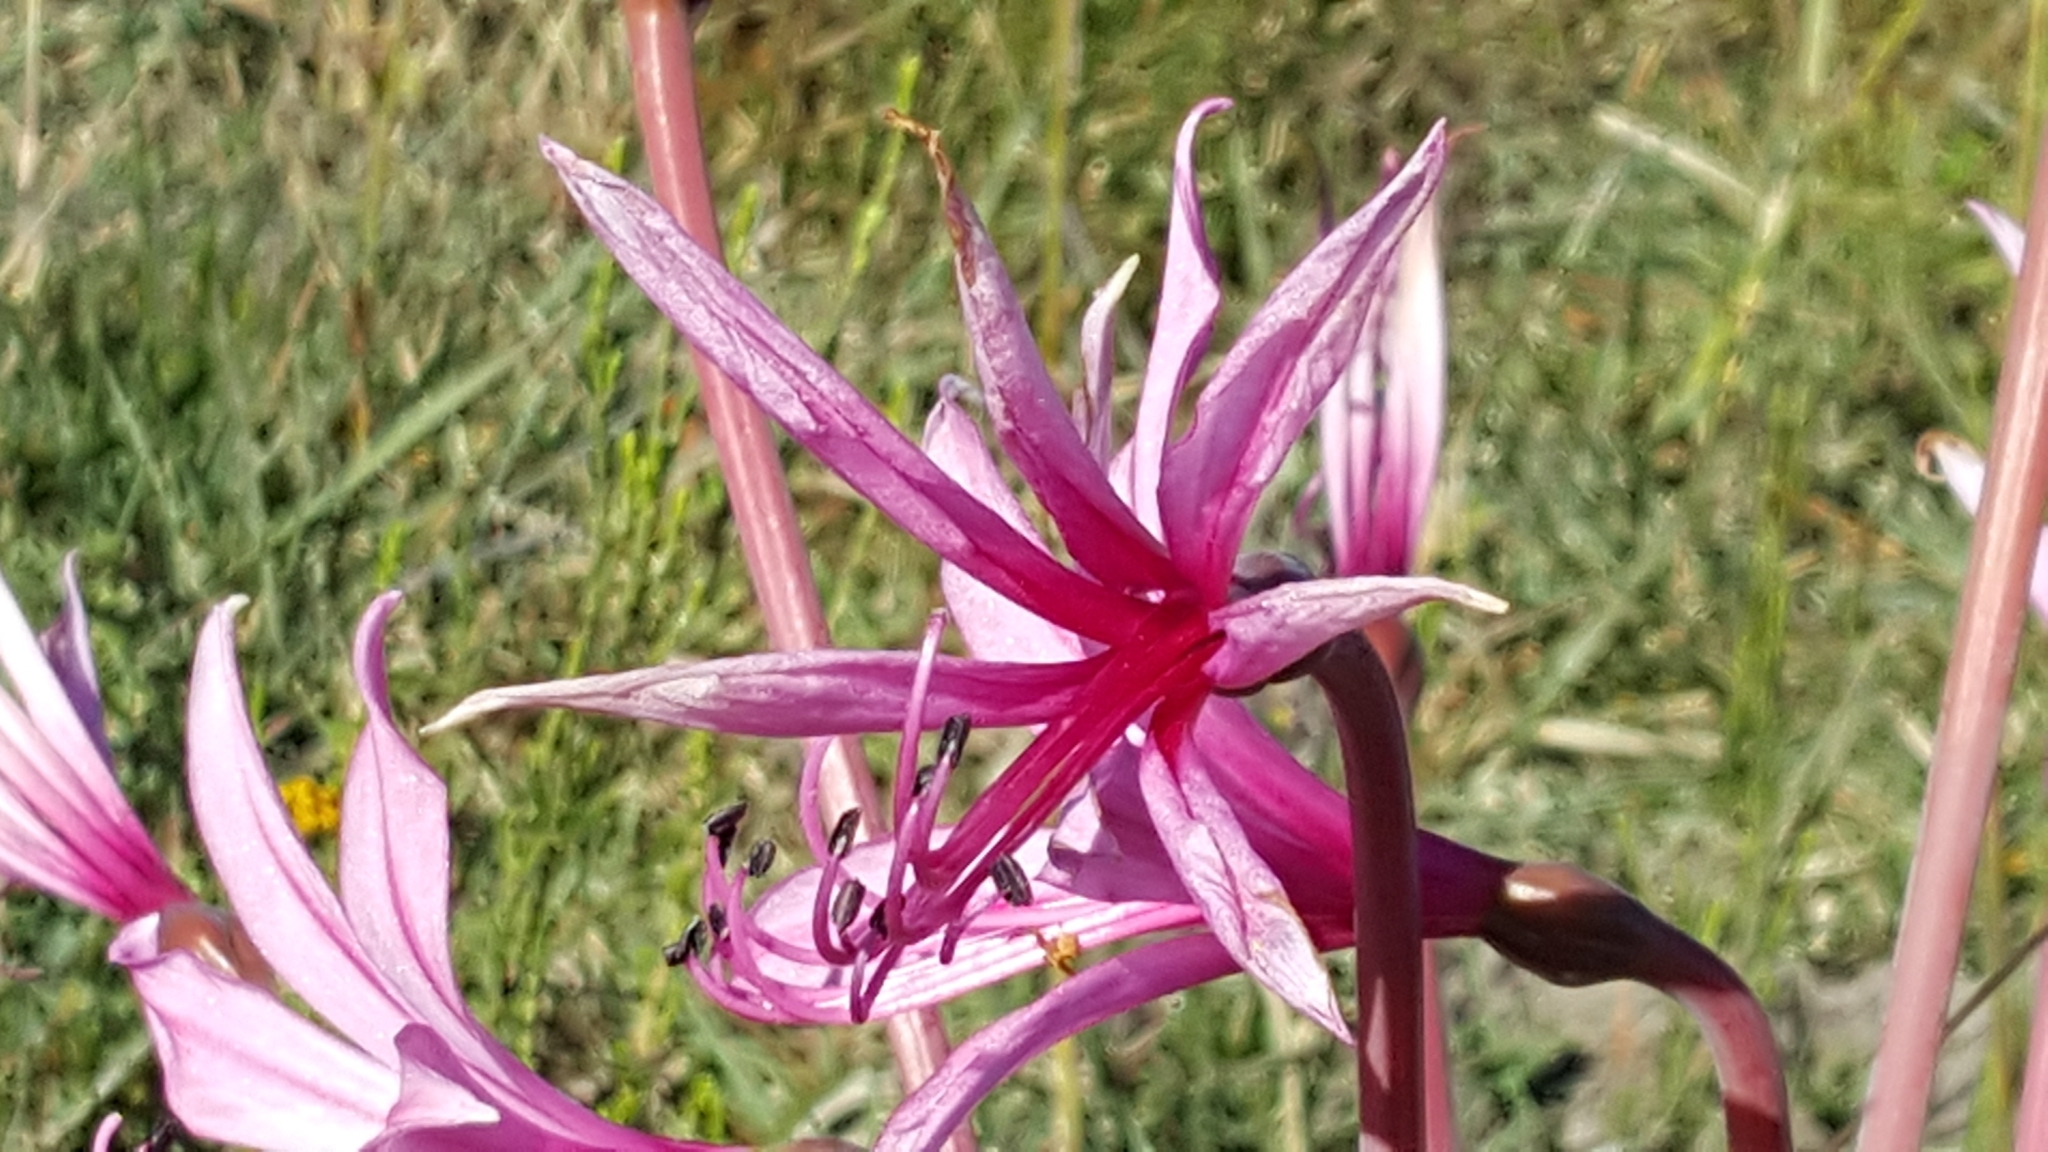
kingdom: Plantae
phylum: Tracheophyta
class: Liliopsida
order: Asparagales
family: Amaryllidaceae
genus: Brunsvigia
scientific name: Brunsvigia gregaria
